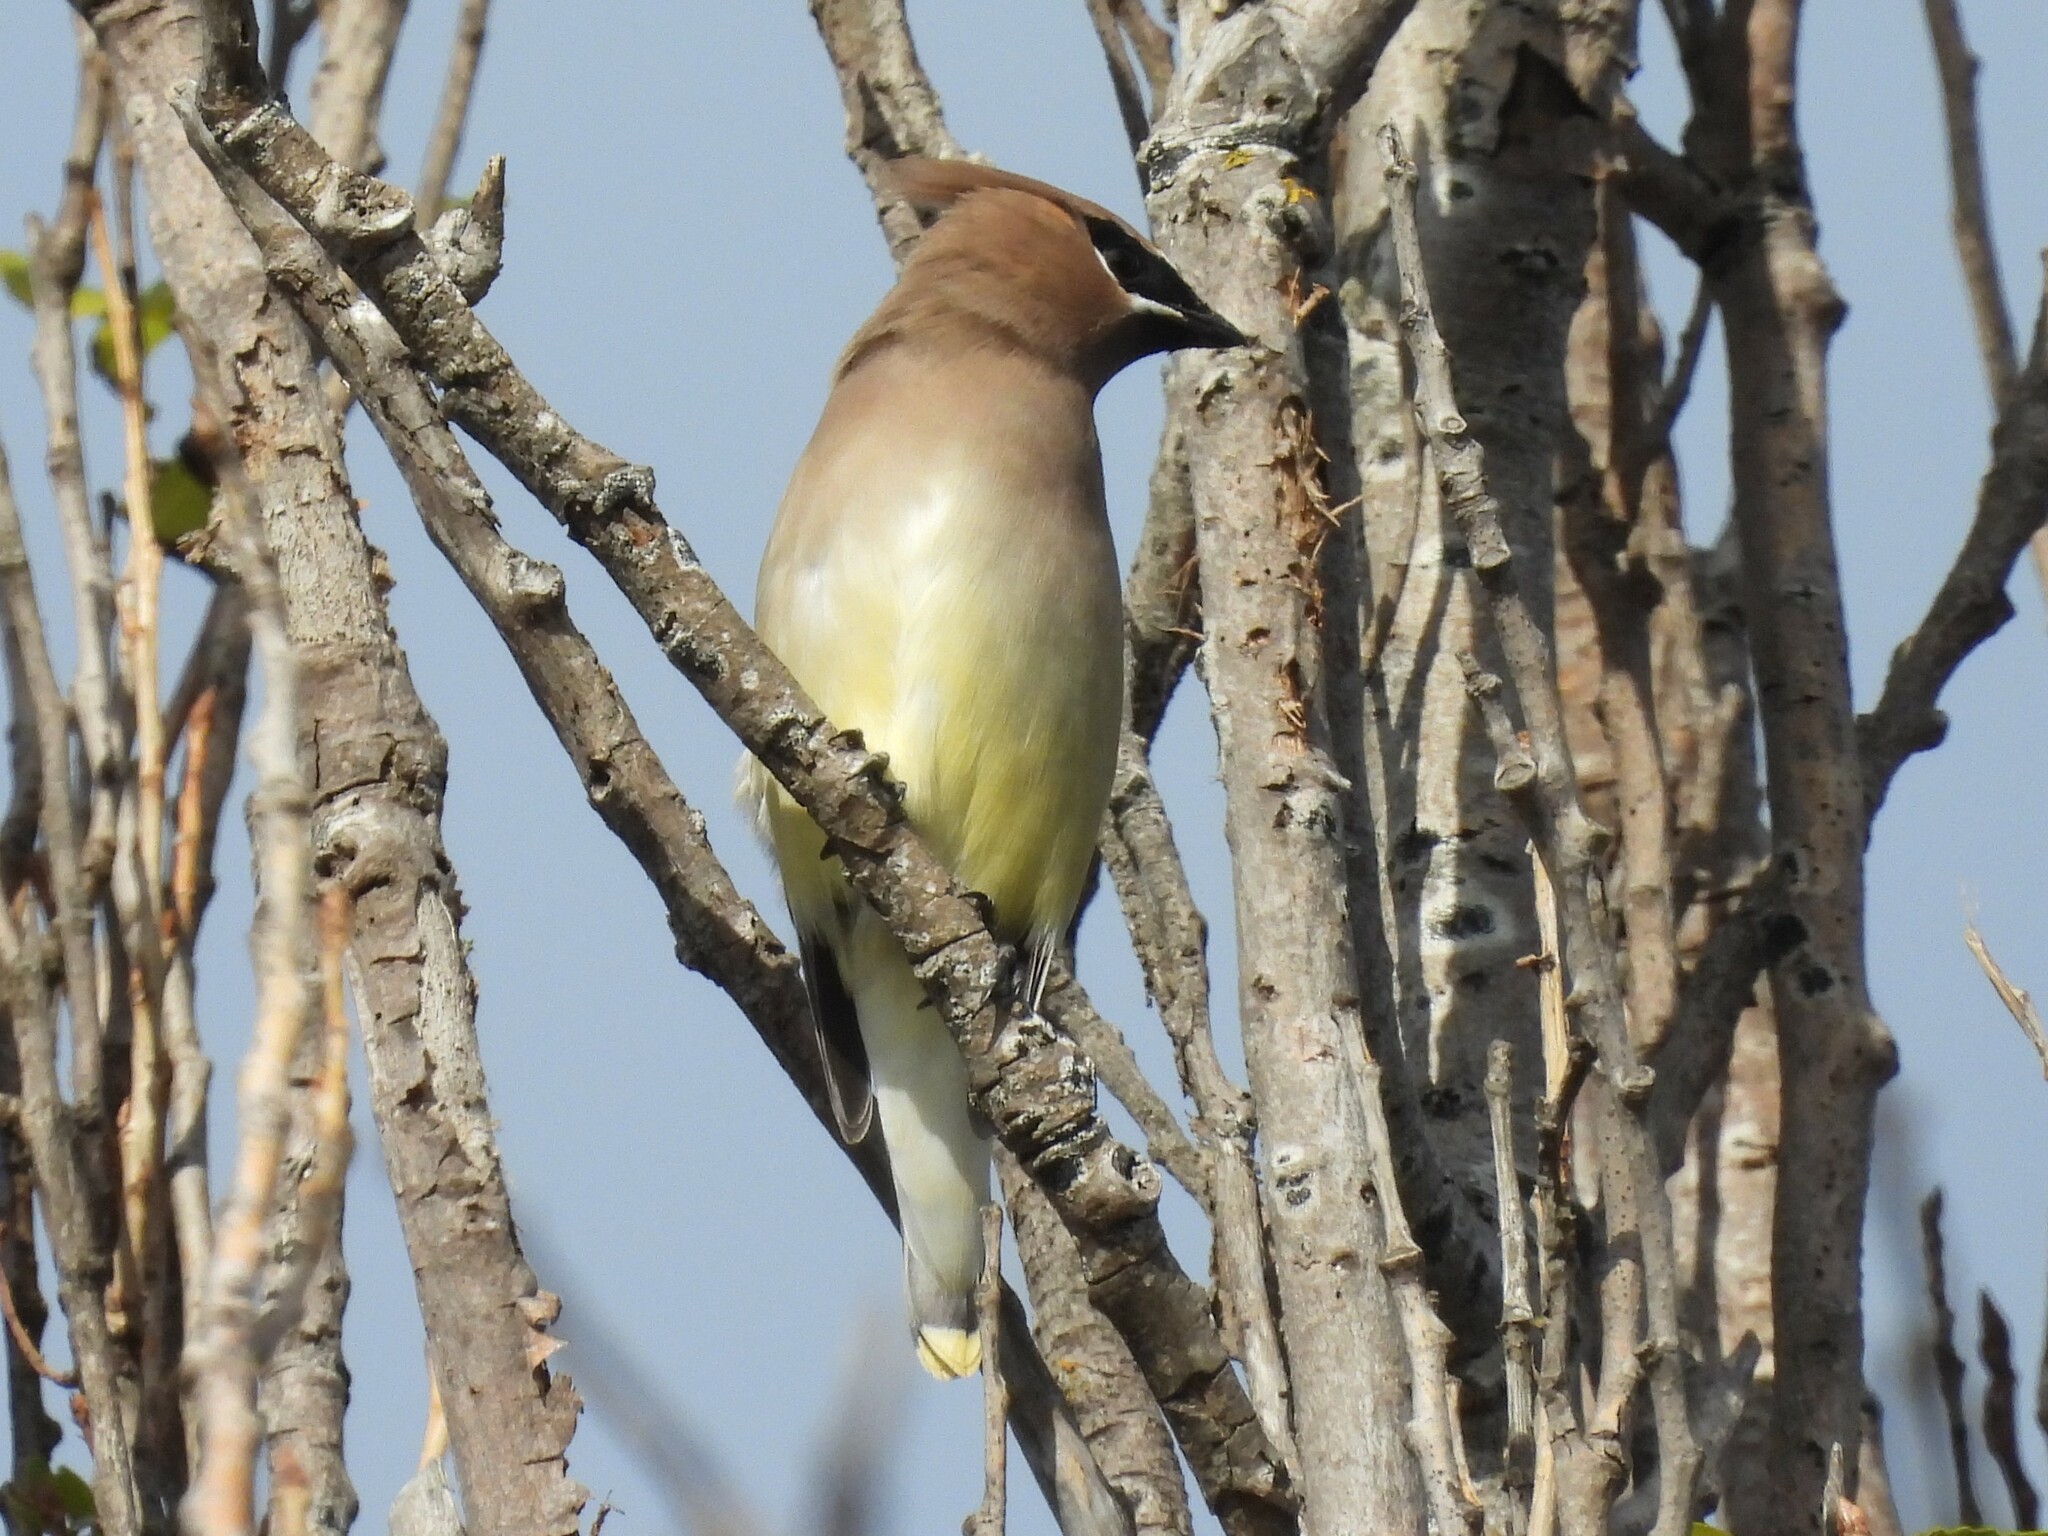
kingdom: Animalia
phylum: Chordata
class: Aves
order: Passeriformes
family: Bombycillidae
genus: Bombycilla
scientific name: Bombycilla cedrorum
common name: Cedar waxwing
